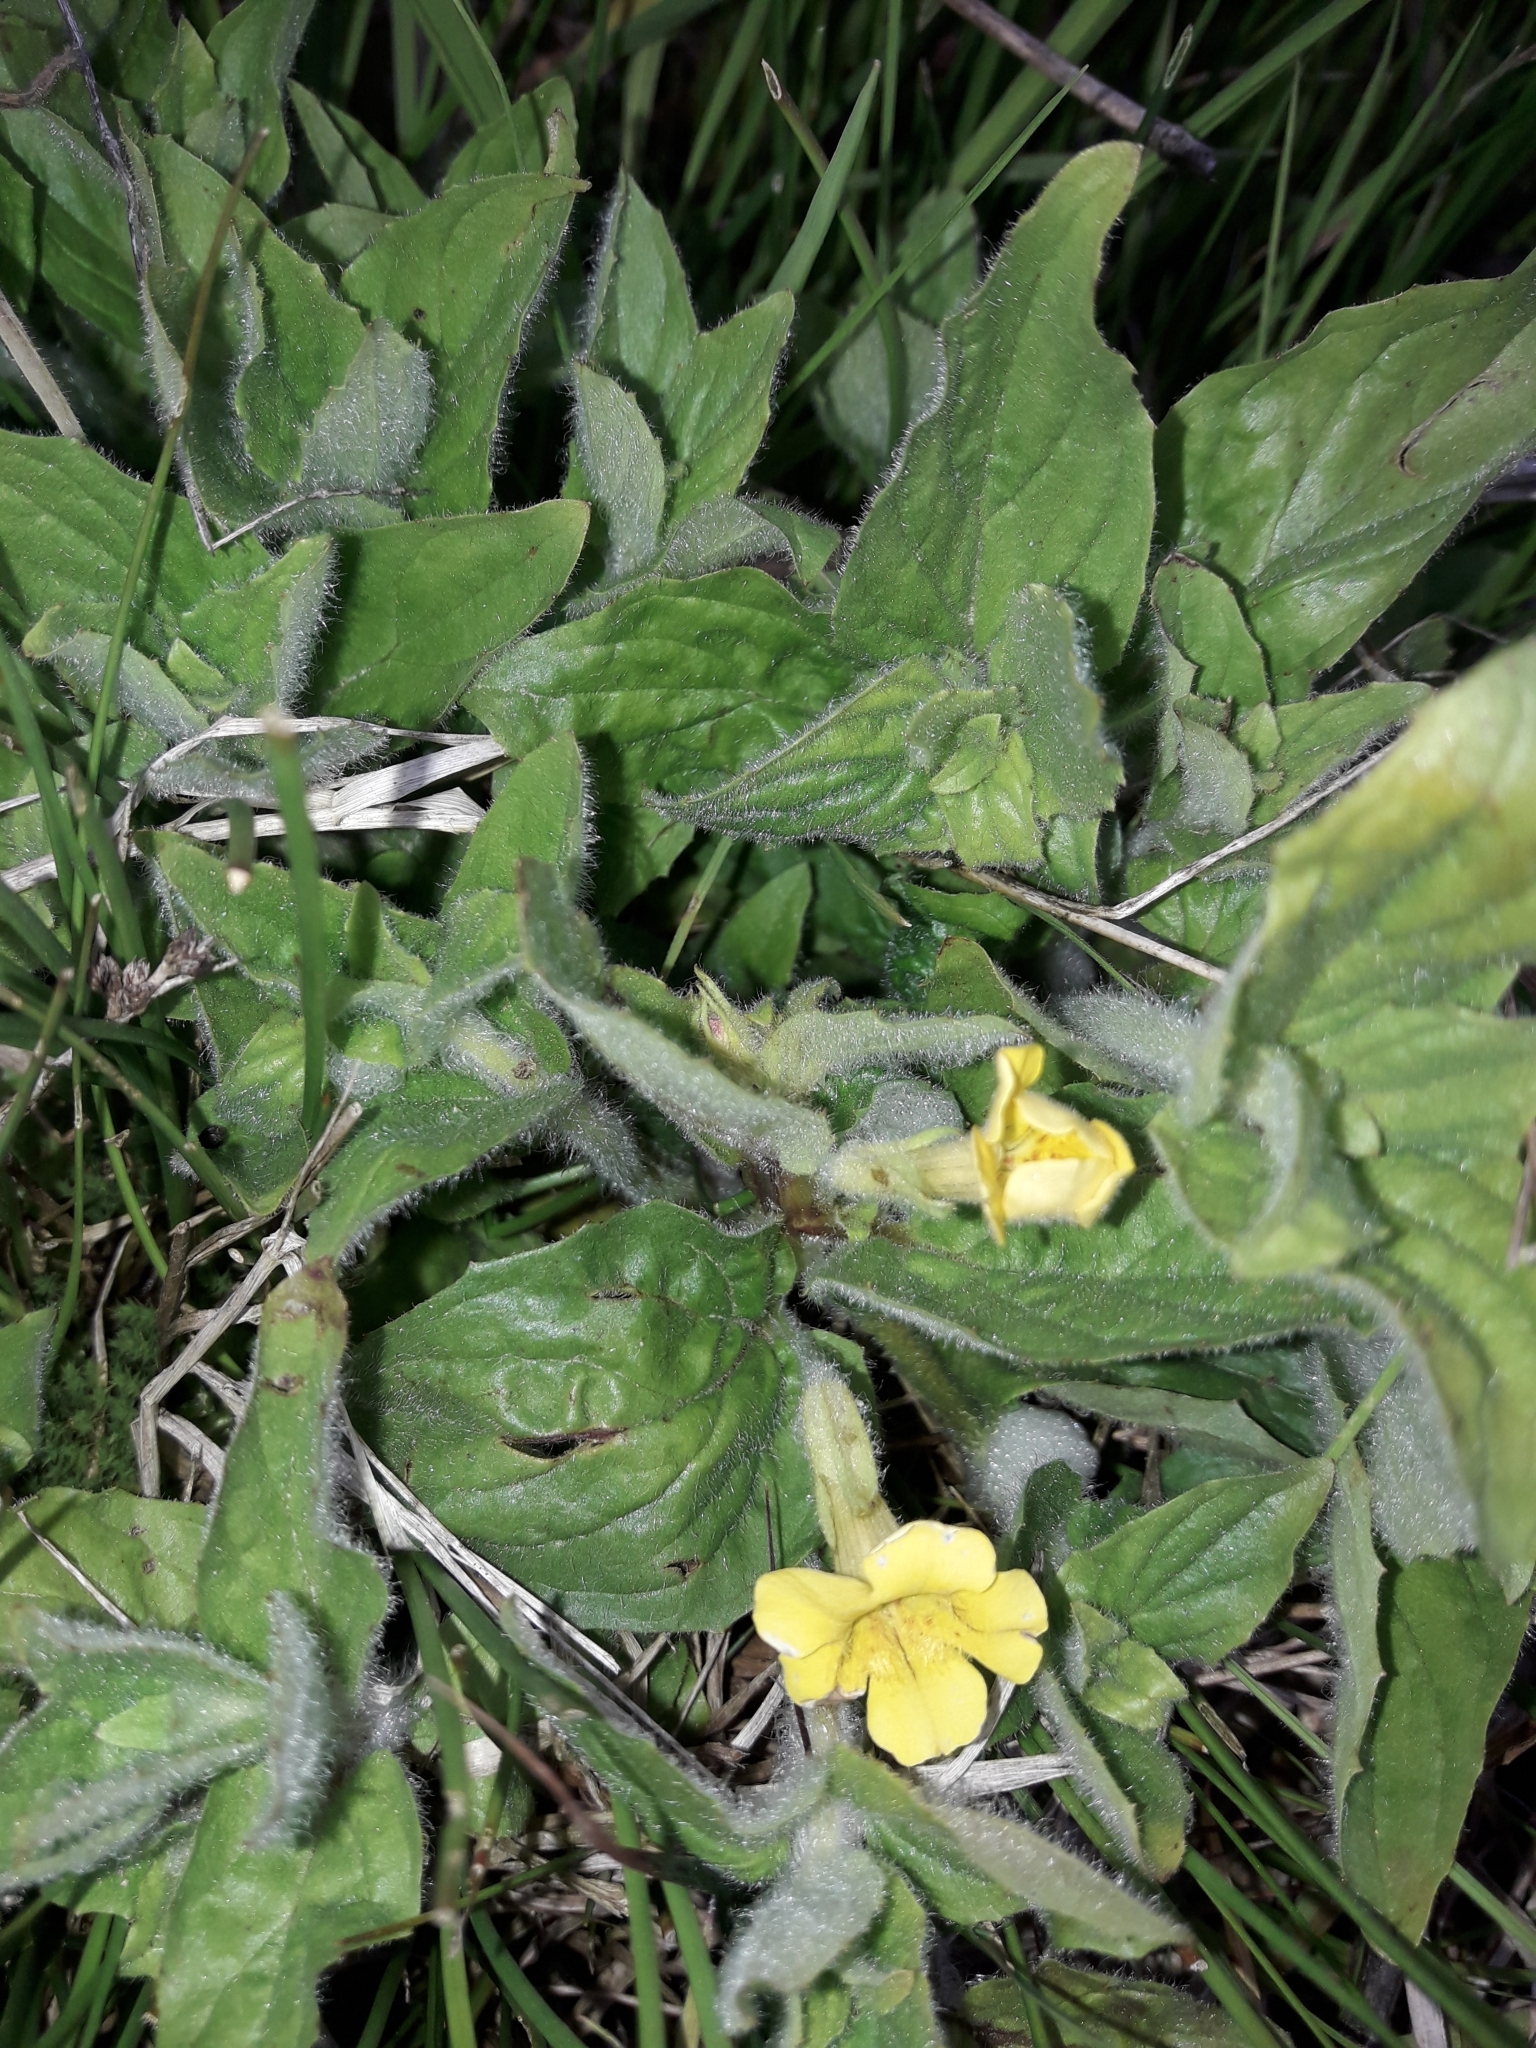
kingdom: Plantae
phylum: Tracheophyta
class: Magnoliopsida
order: Lamiales
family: Phrymaceae
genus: Erythranthe
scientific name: Erythranthe moschata
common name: Muskflower
